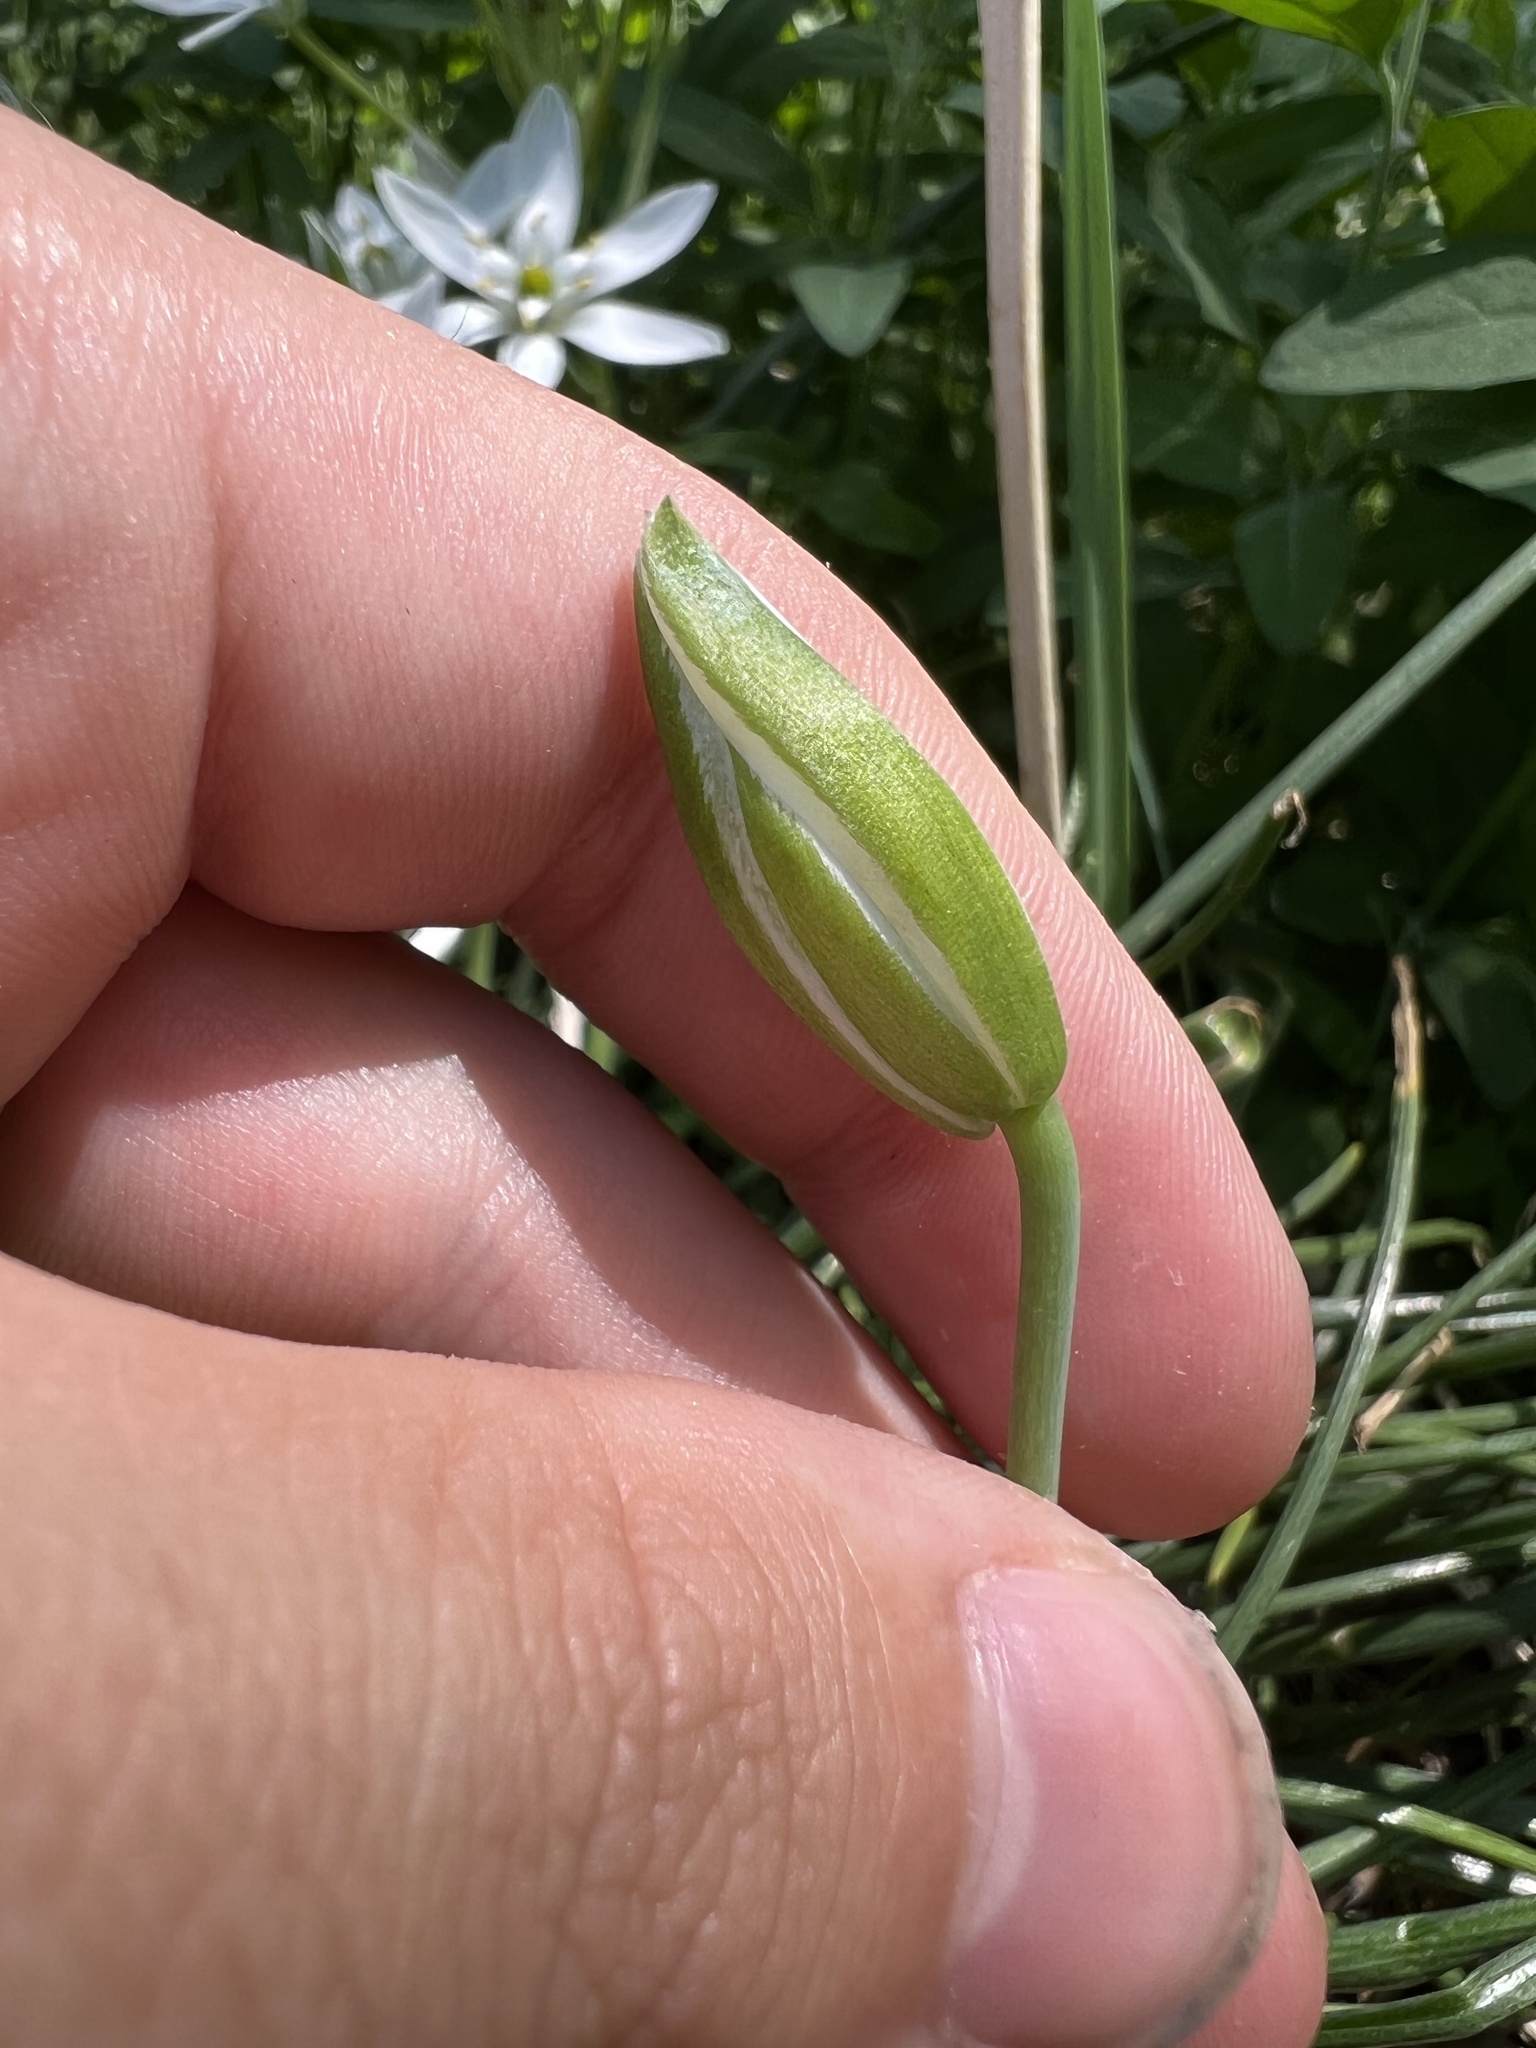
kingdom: Plantae
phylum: Tracheophyta
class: Liliopsida
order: Asparagales
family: Asparagaceae
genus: Ornithogalum
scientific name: Ornithogalum umbellatum
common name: Garden star-of-bethlehem
